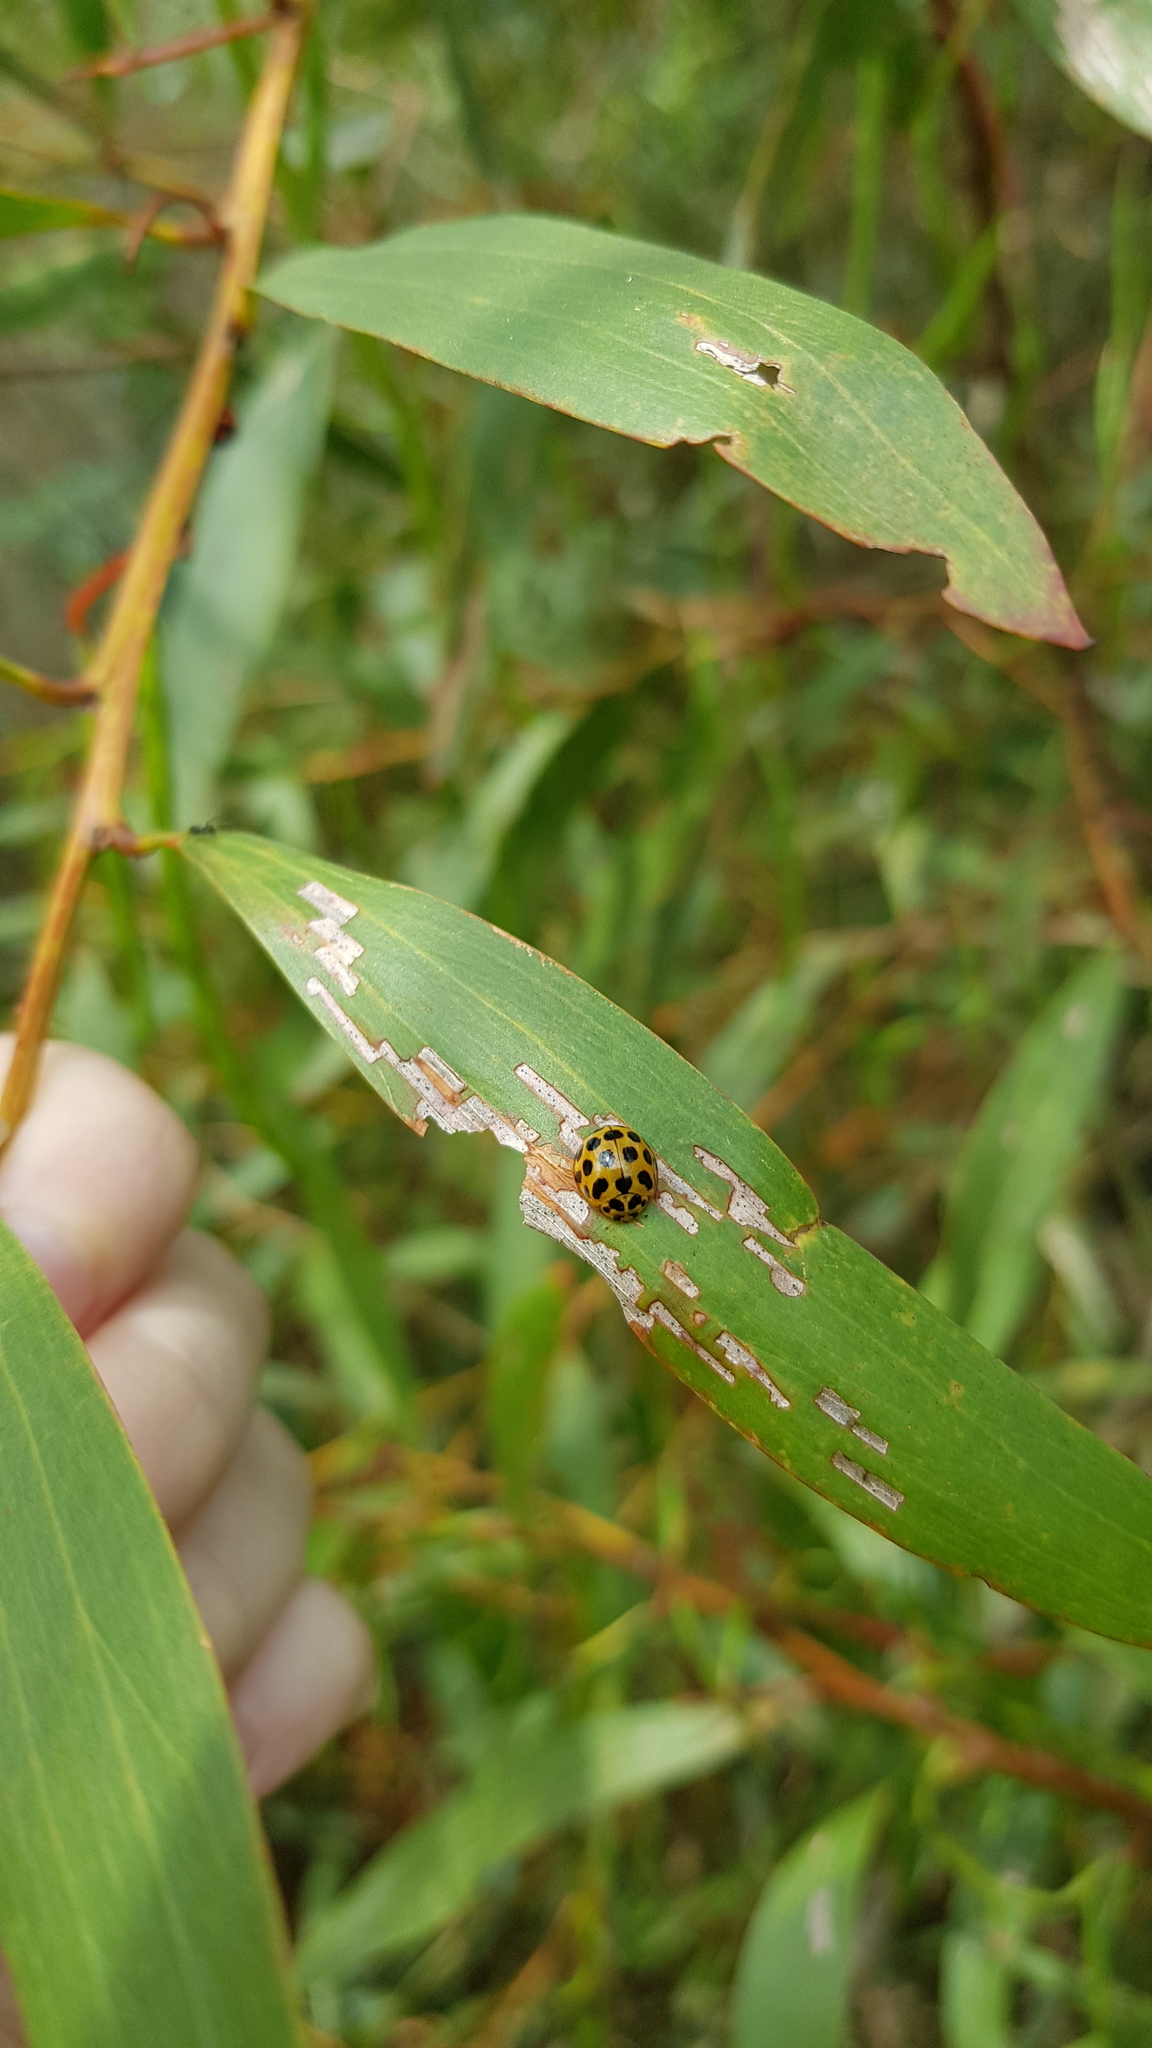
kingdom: Animalia
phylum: Arthropoda
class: Insecta
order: Coleoptera
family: Coccinellidae
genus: Harmonia
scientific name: Harmonia conformis
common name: Common spotted ladybird beetle
